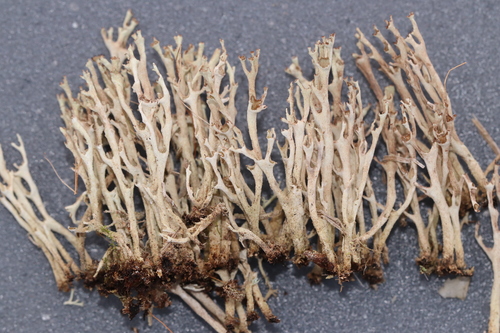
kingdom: Fungi
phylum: Ascomycota
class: Lecanoromycetes
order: Lecanorales
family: Cladoniaceae
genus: Cladonia
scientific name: Cladonia cenotea
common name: Powdered funnel lichen
